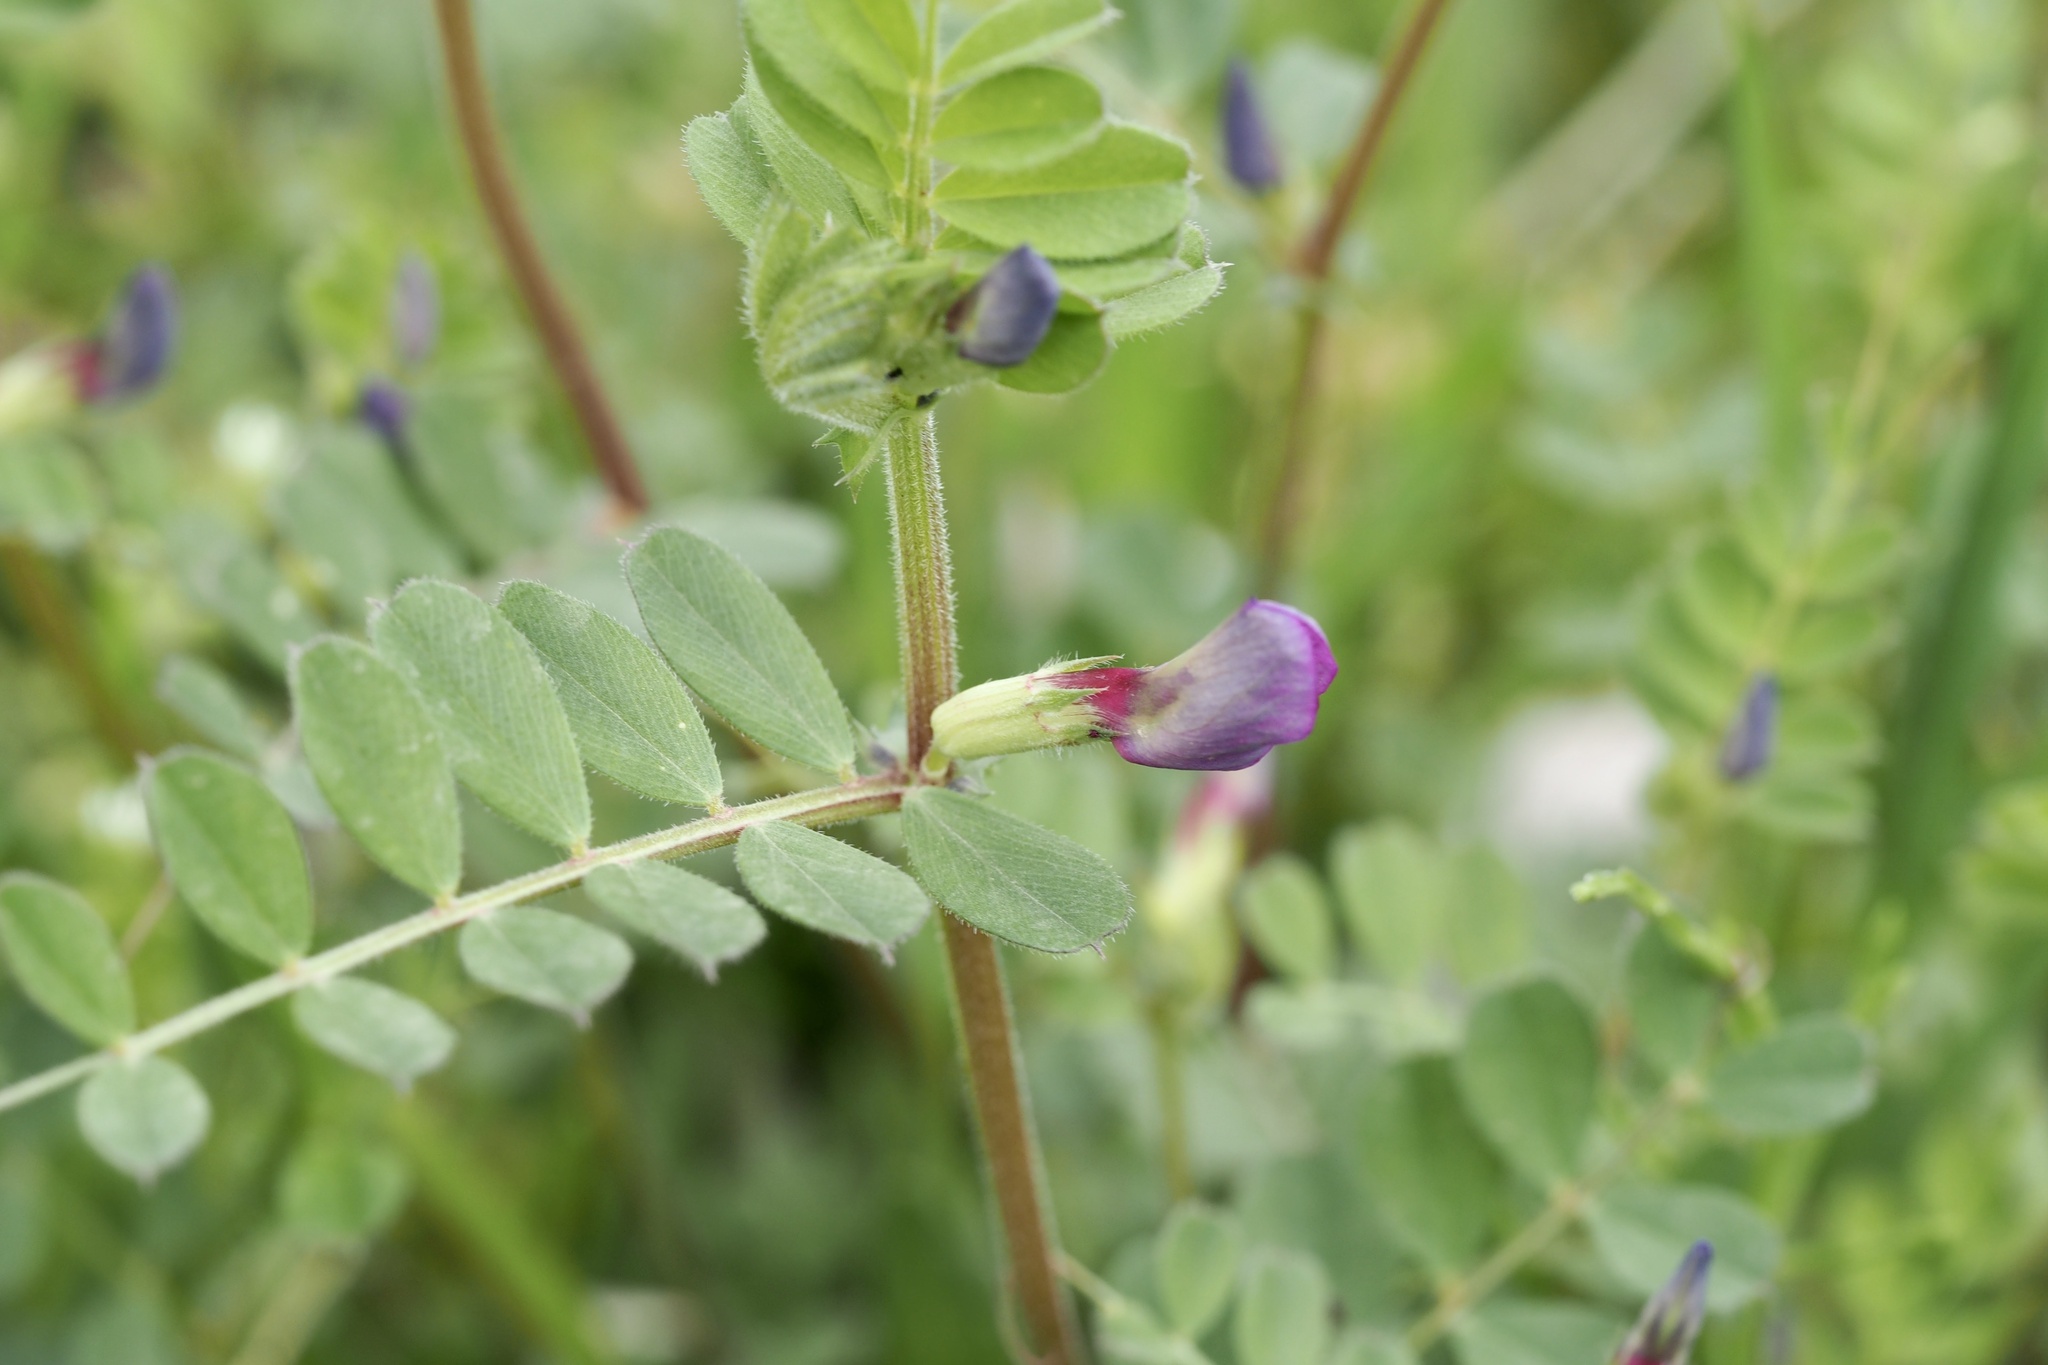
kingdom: Plantae
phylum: Tracheophyta
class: Magnoliopsida
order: Fabales
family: Fabaceae
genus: Vicia
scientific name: Vicia sativa
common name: Garden vetch
